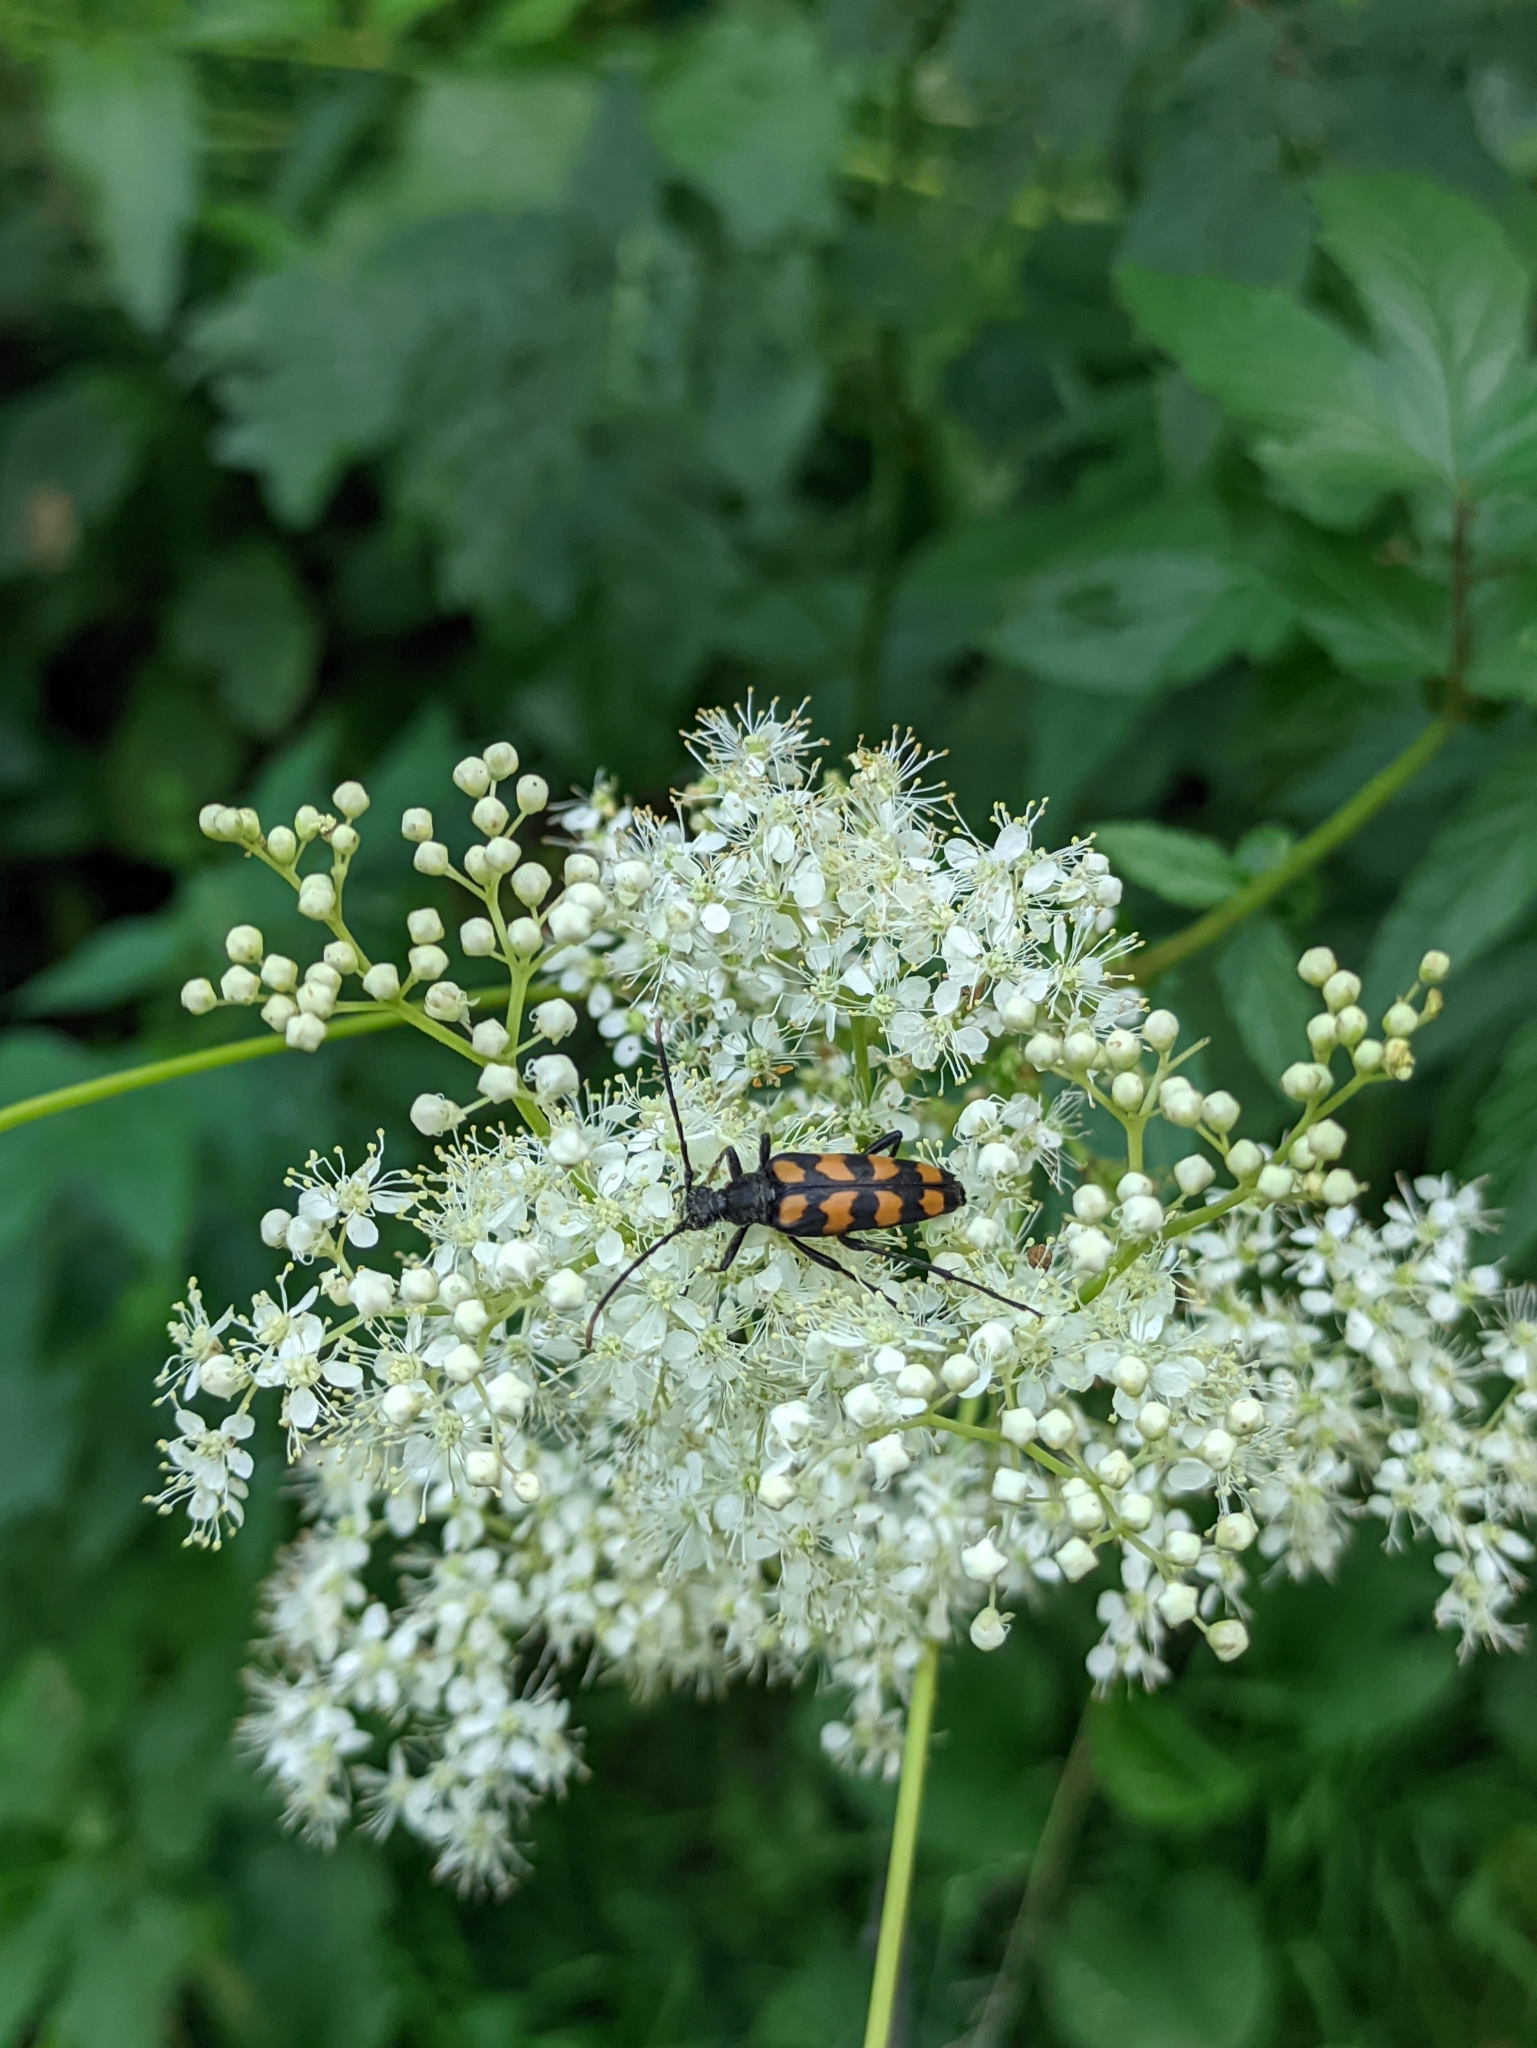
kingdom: Animalia
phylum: Arthropoda
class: Insecta
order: Coleoptera
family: Cerambycidae
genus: Leptura
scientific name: Leptura quadrifasciata
